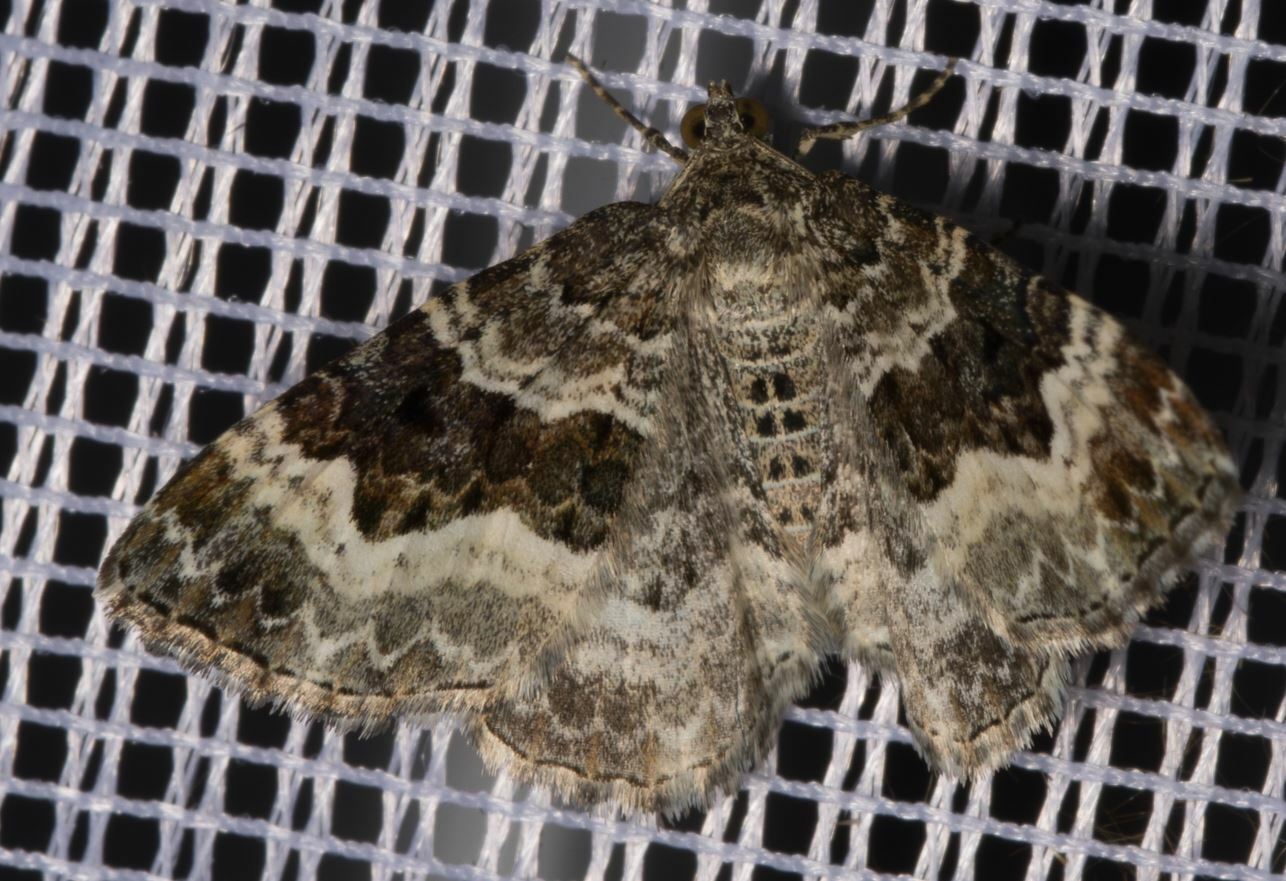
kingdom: Animalia
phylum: Arthropoda
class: Insecta
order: Lepidoptera
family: Geometridae
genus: Epirrhoe
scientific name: Epirrhoe alternata
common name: Common carpet
